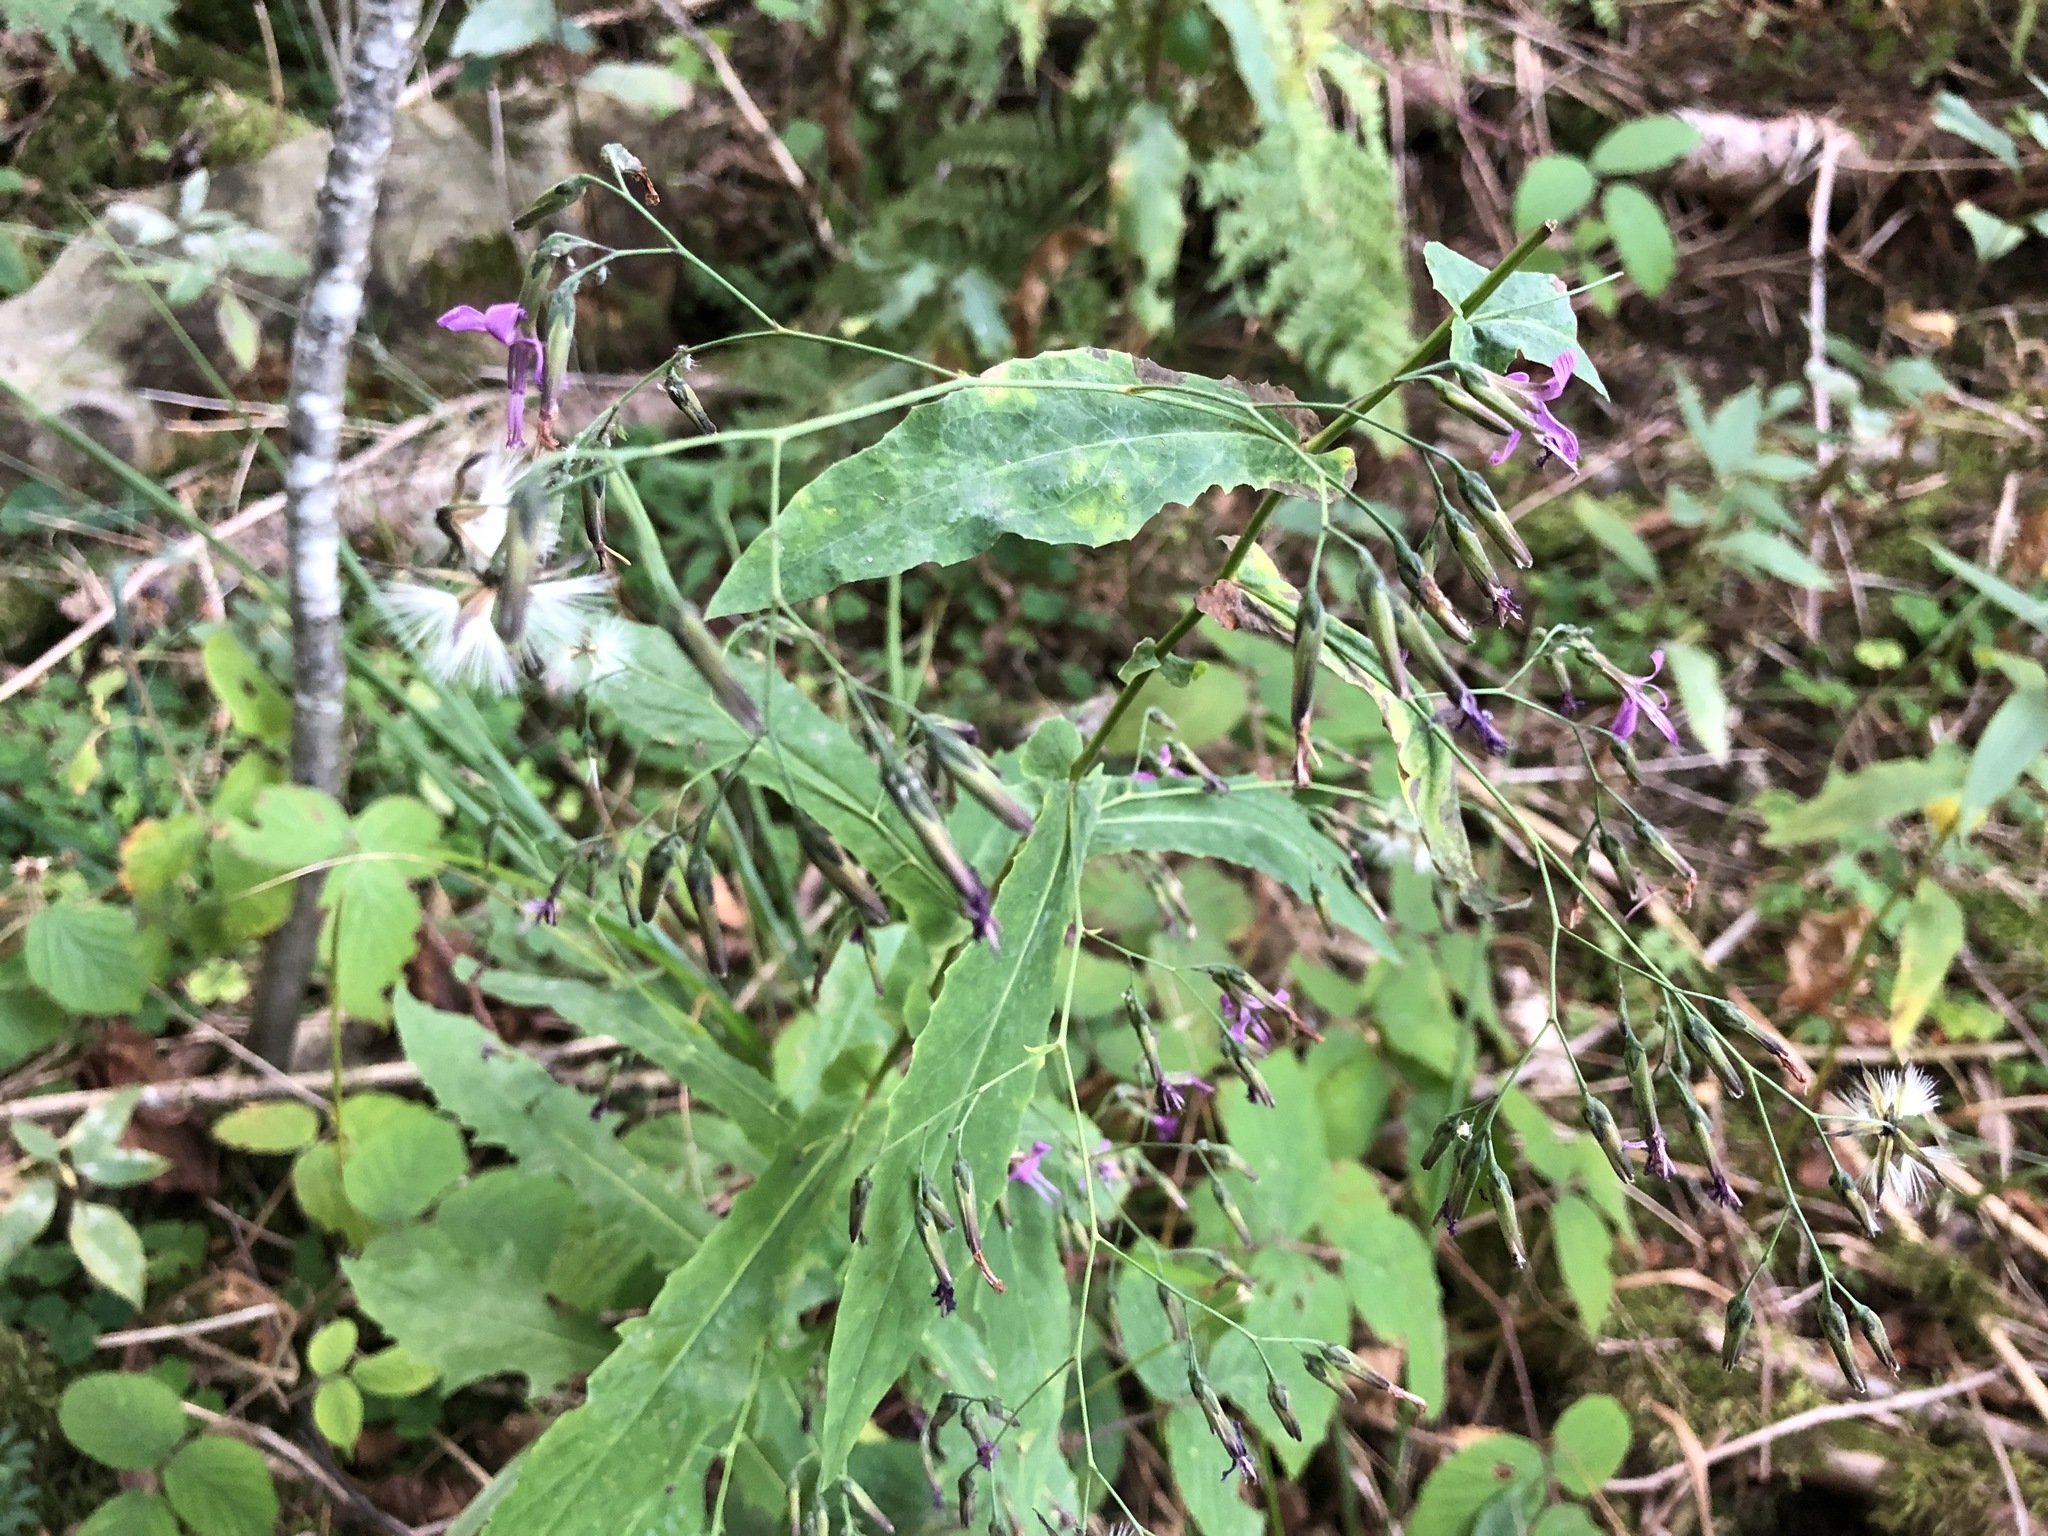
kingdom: Plantae
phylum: Tracheophyta
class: Magnoliopsida
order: Asterales
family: Asteraceae
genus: Prenanthes
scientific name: Prenanthes purpurea
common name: Purple lettuce
